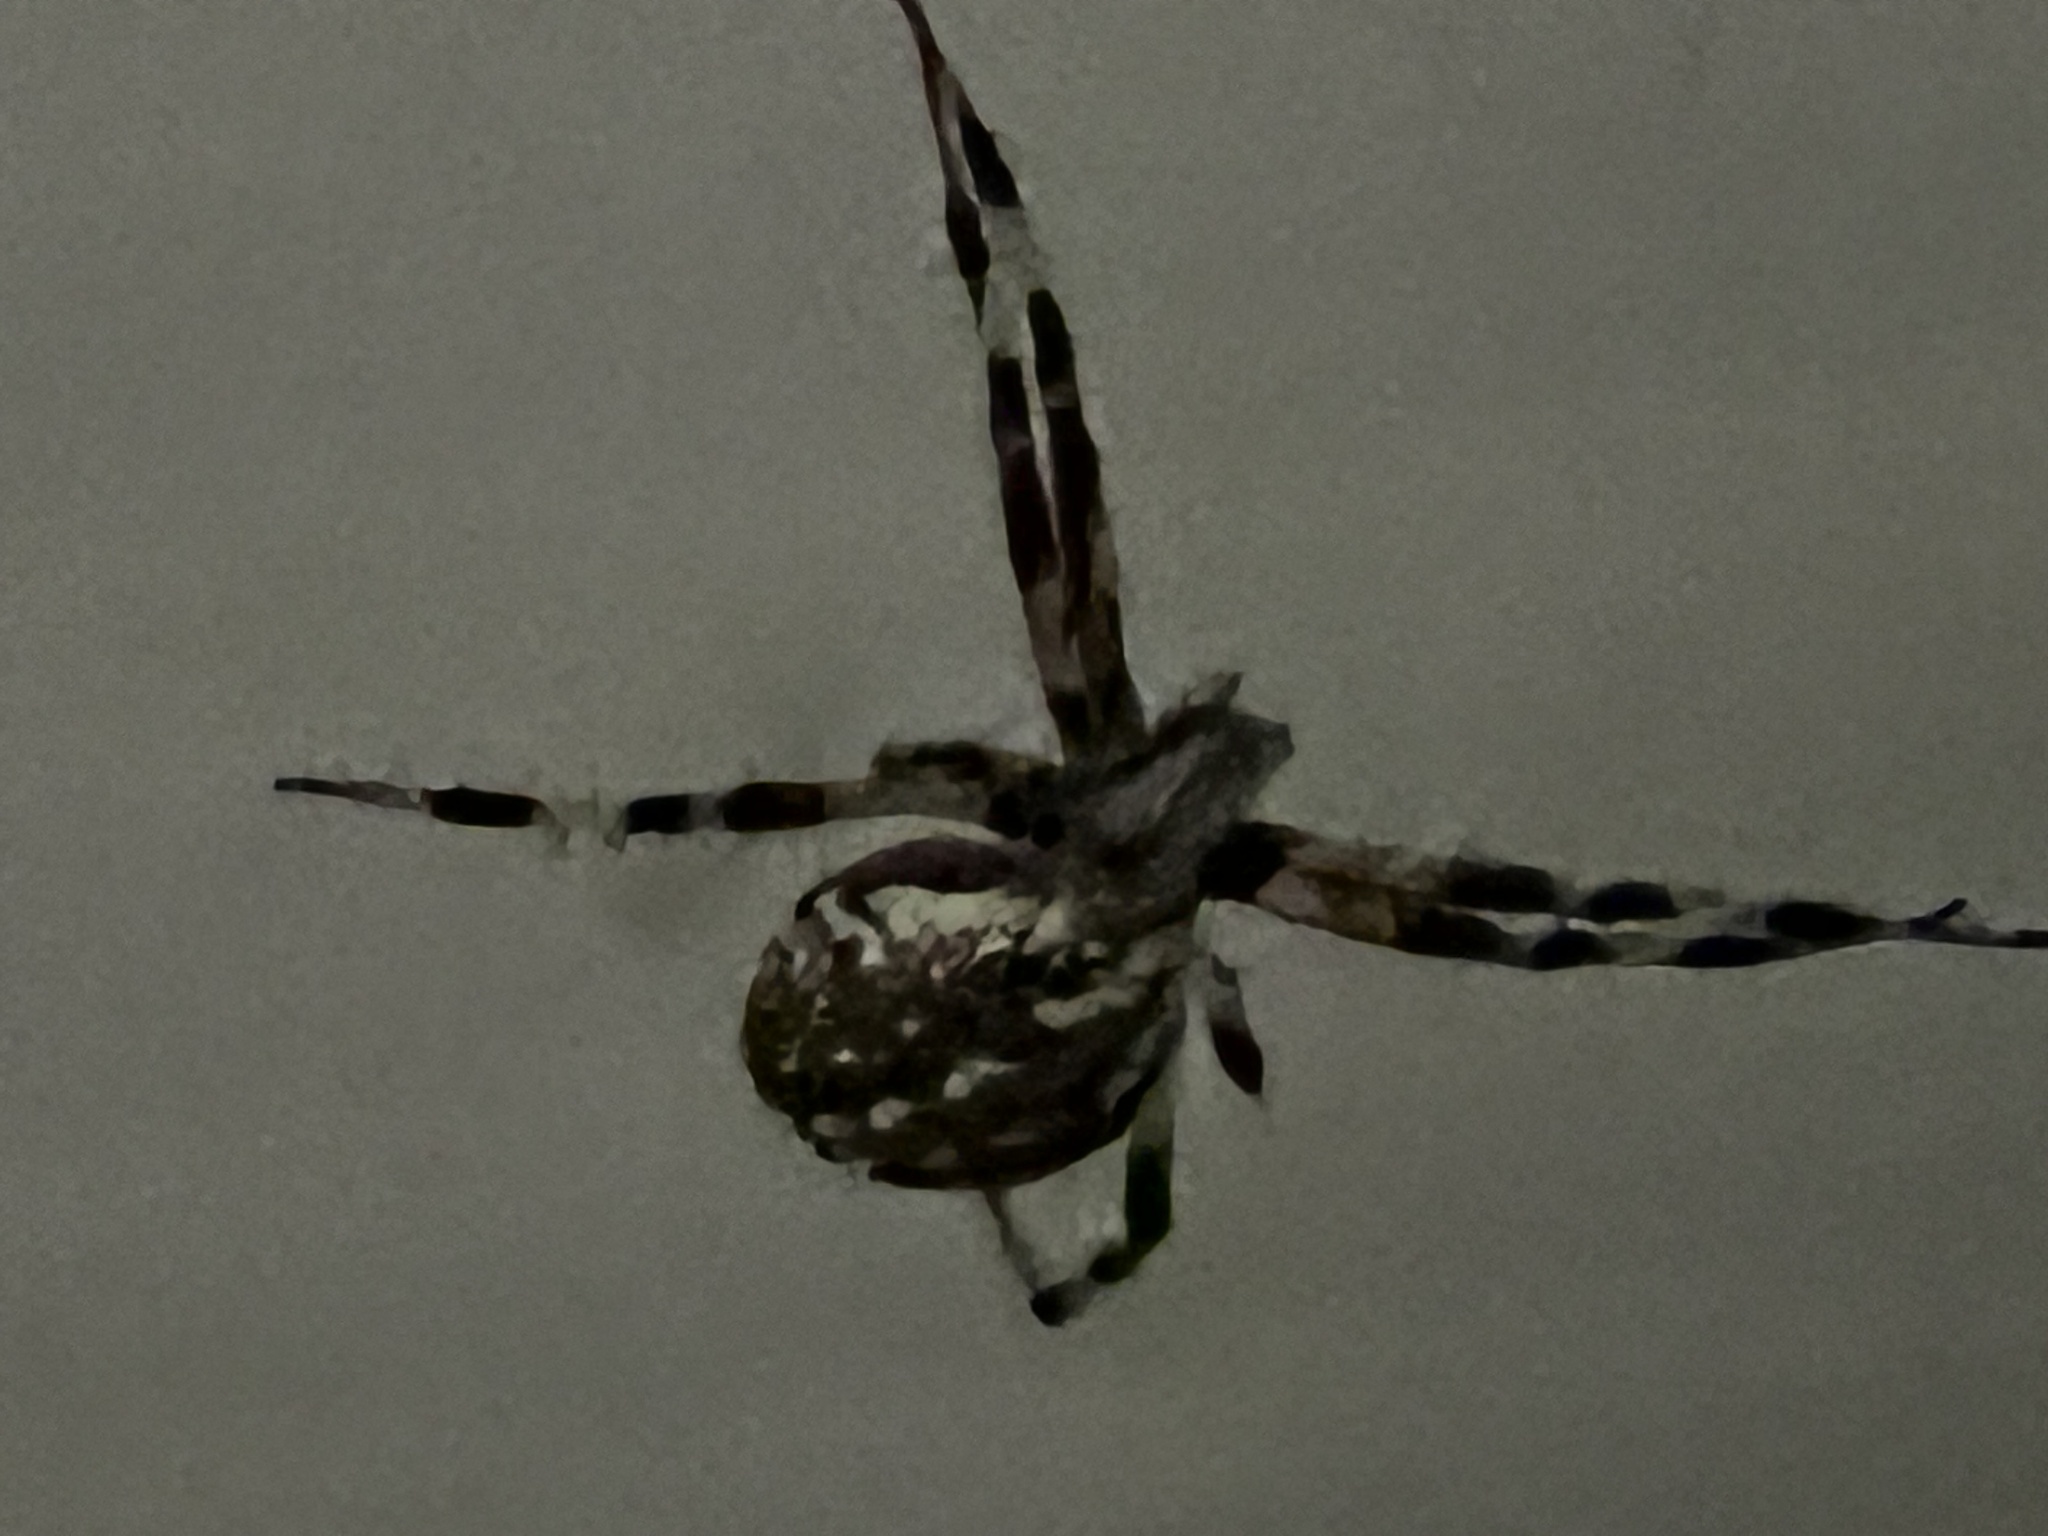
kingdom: Animalia
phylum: Arthropoda
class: Arachnida
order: Araneae
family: Araneidae
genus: Neoscona
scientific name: Neoscona oaxacensis
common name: Orb weavers
